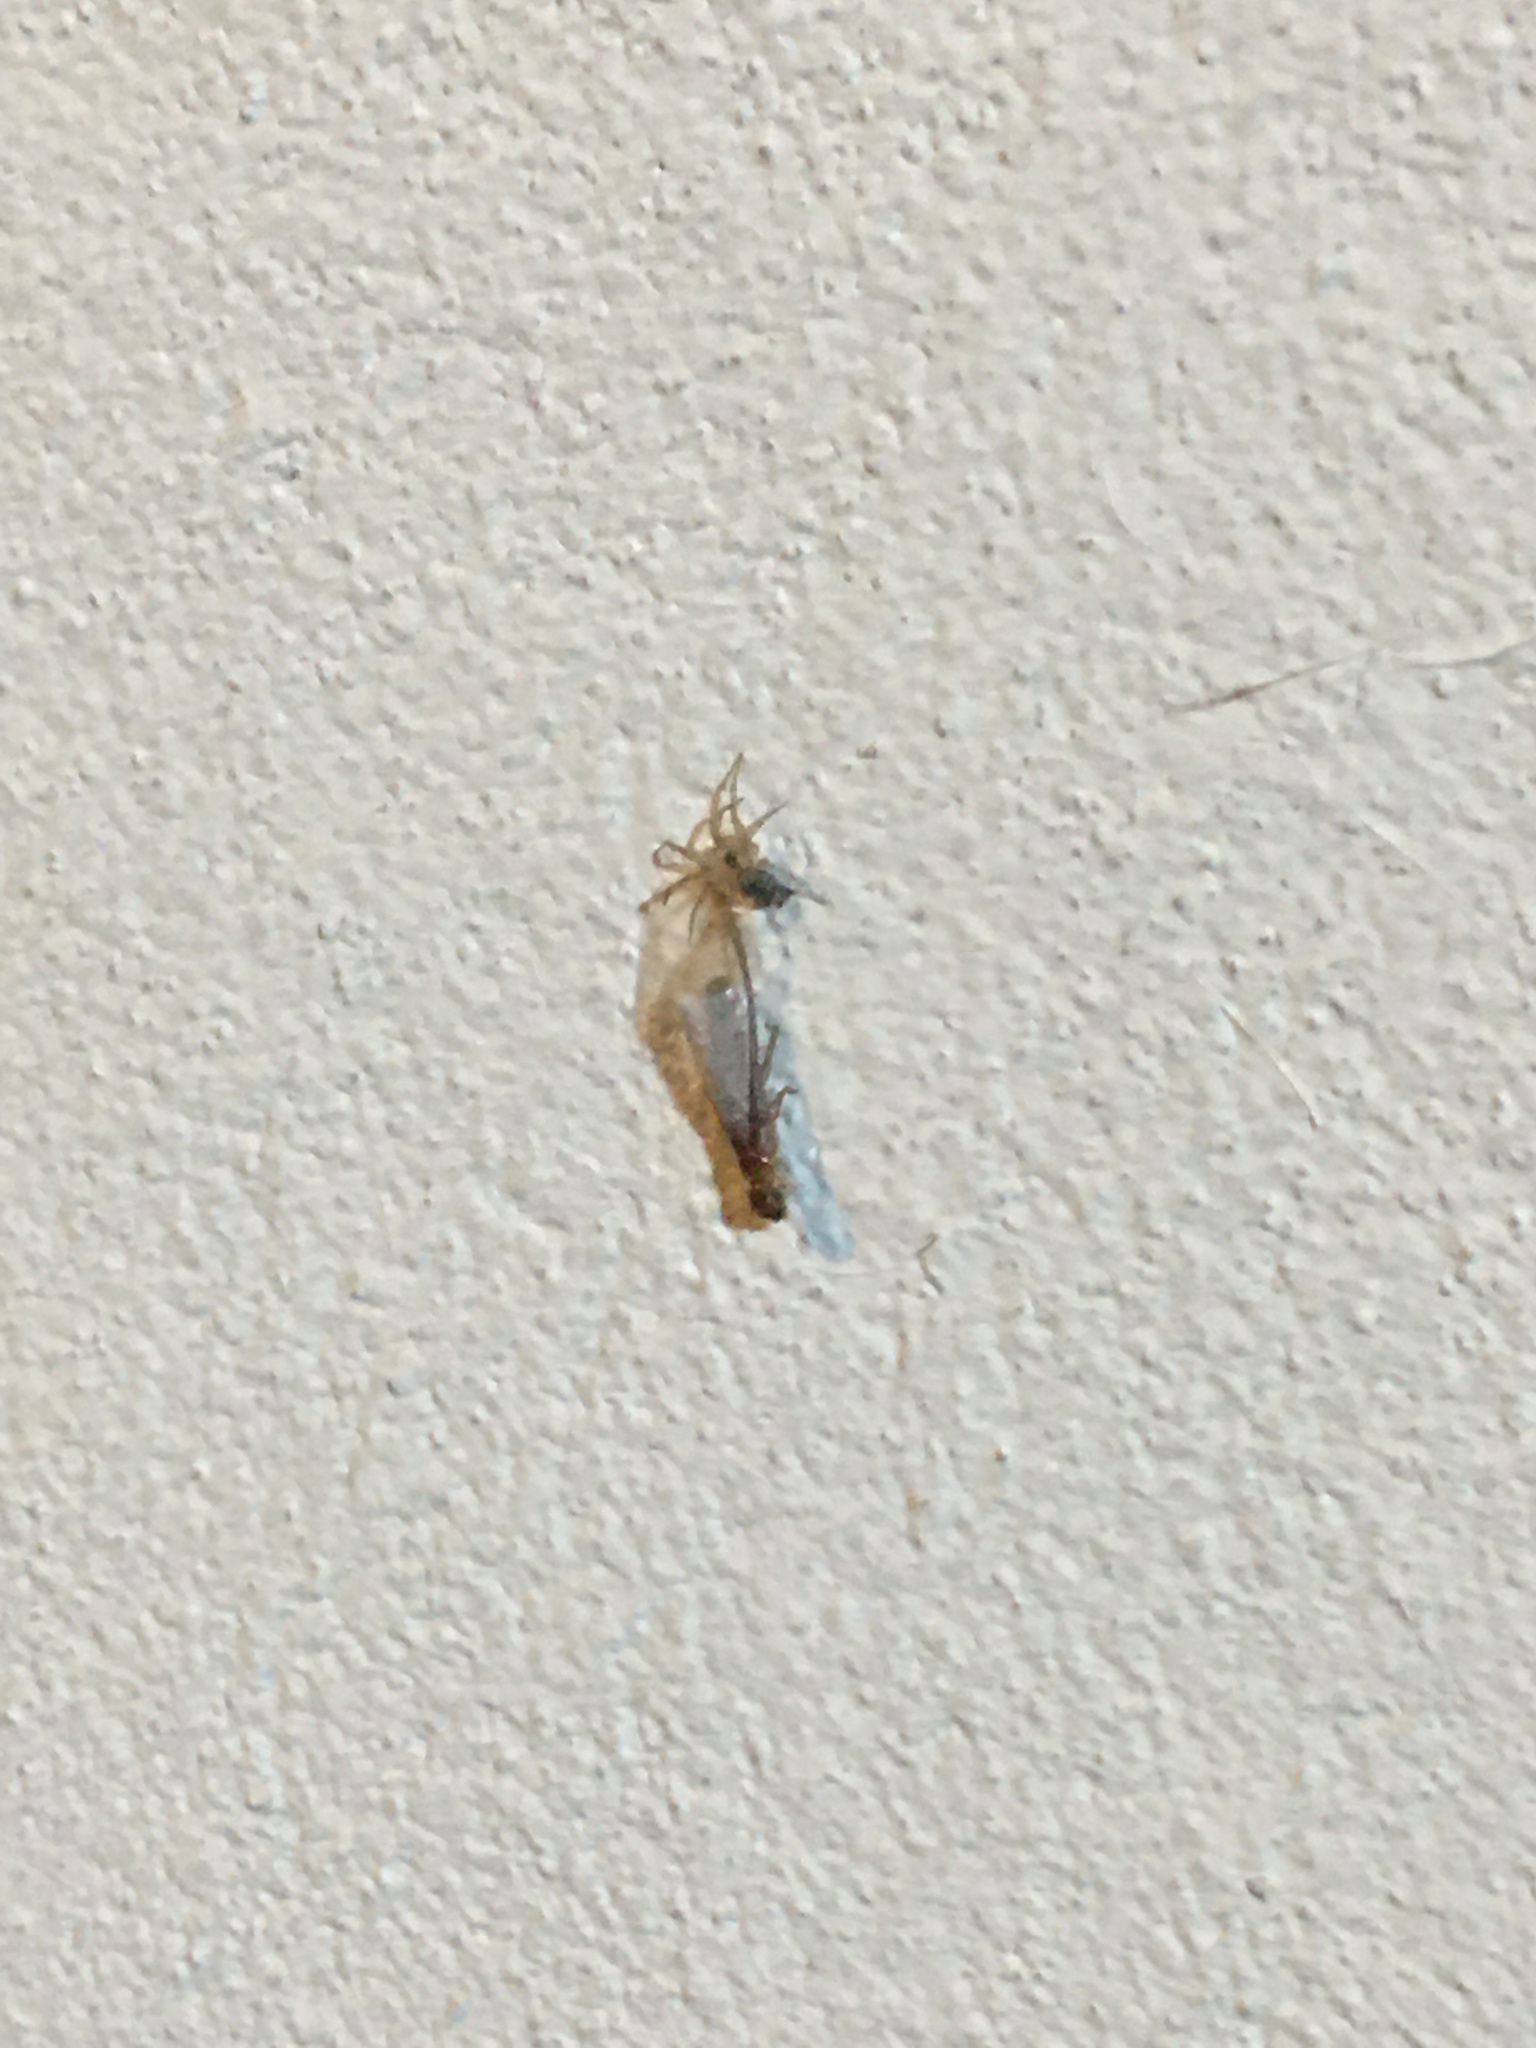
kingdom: Animalia
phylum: Arthropoda
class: Arachnida
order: Araneae
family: Oecobiidae
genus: Oecobius
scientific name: Oecobius navus
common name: Flatmesh weaver
